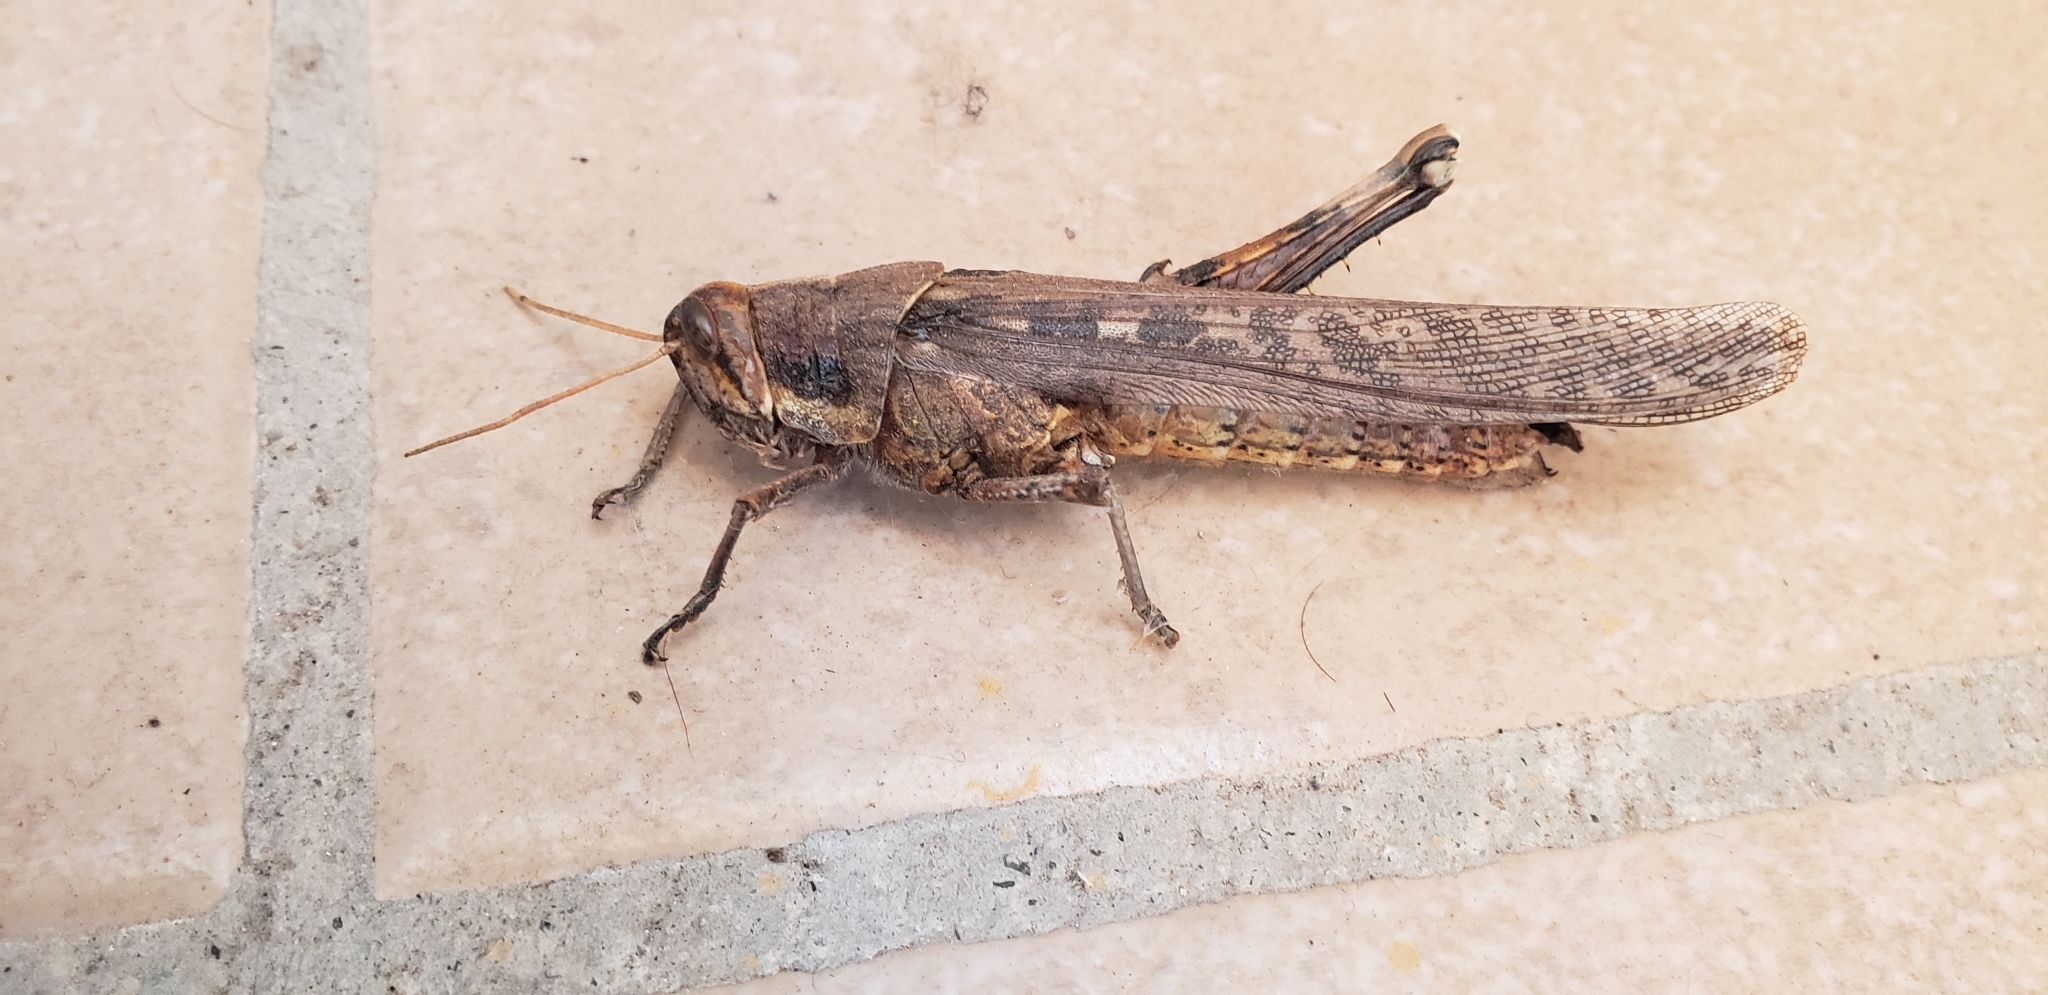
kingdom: Animalia
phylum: Arthropoda
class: Insecta
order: Orthoptera
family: Acrididae
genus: Schistocerca
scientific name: Schistocerca nitens
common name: Vagrant grasshopper
